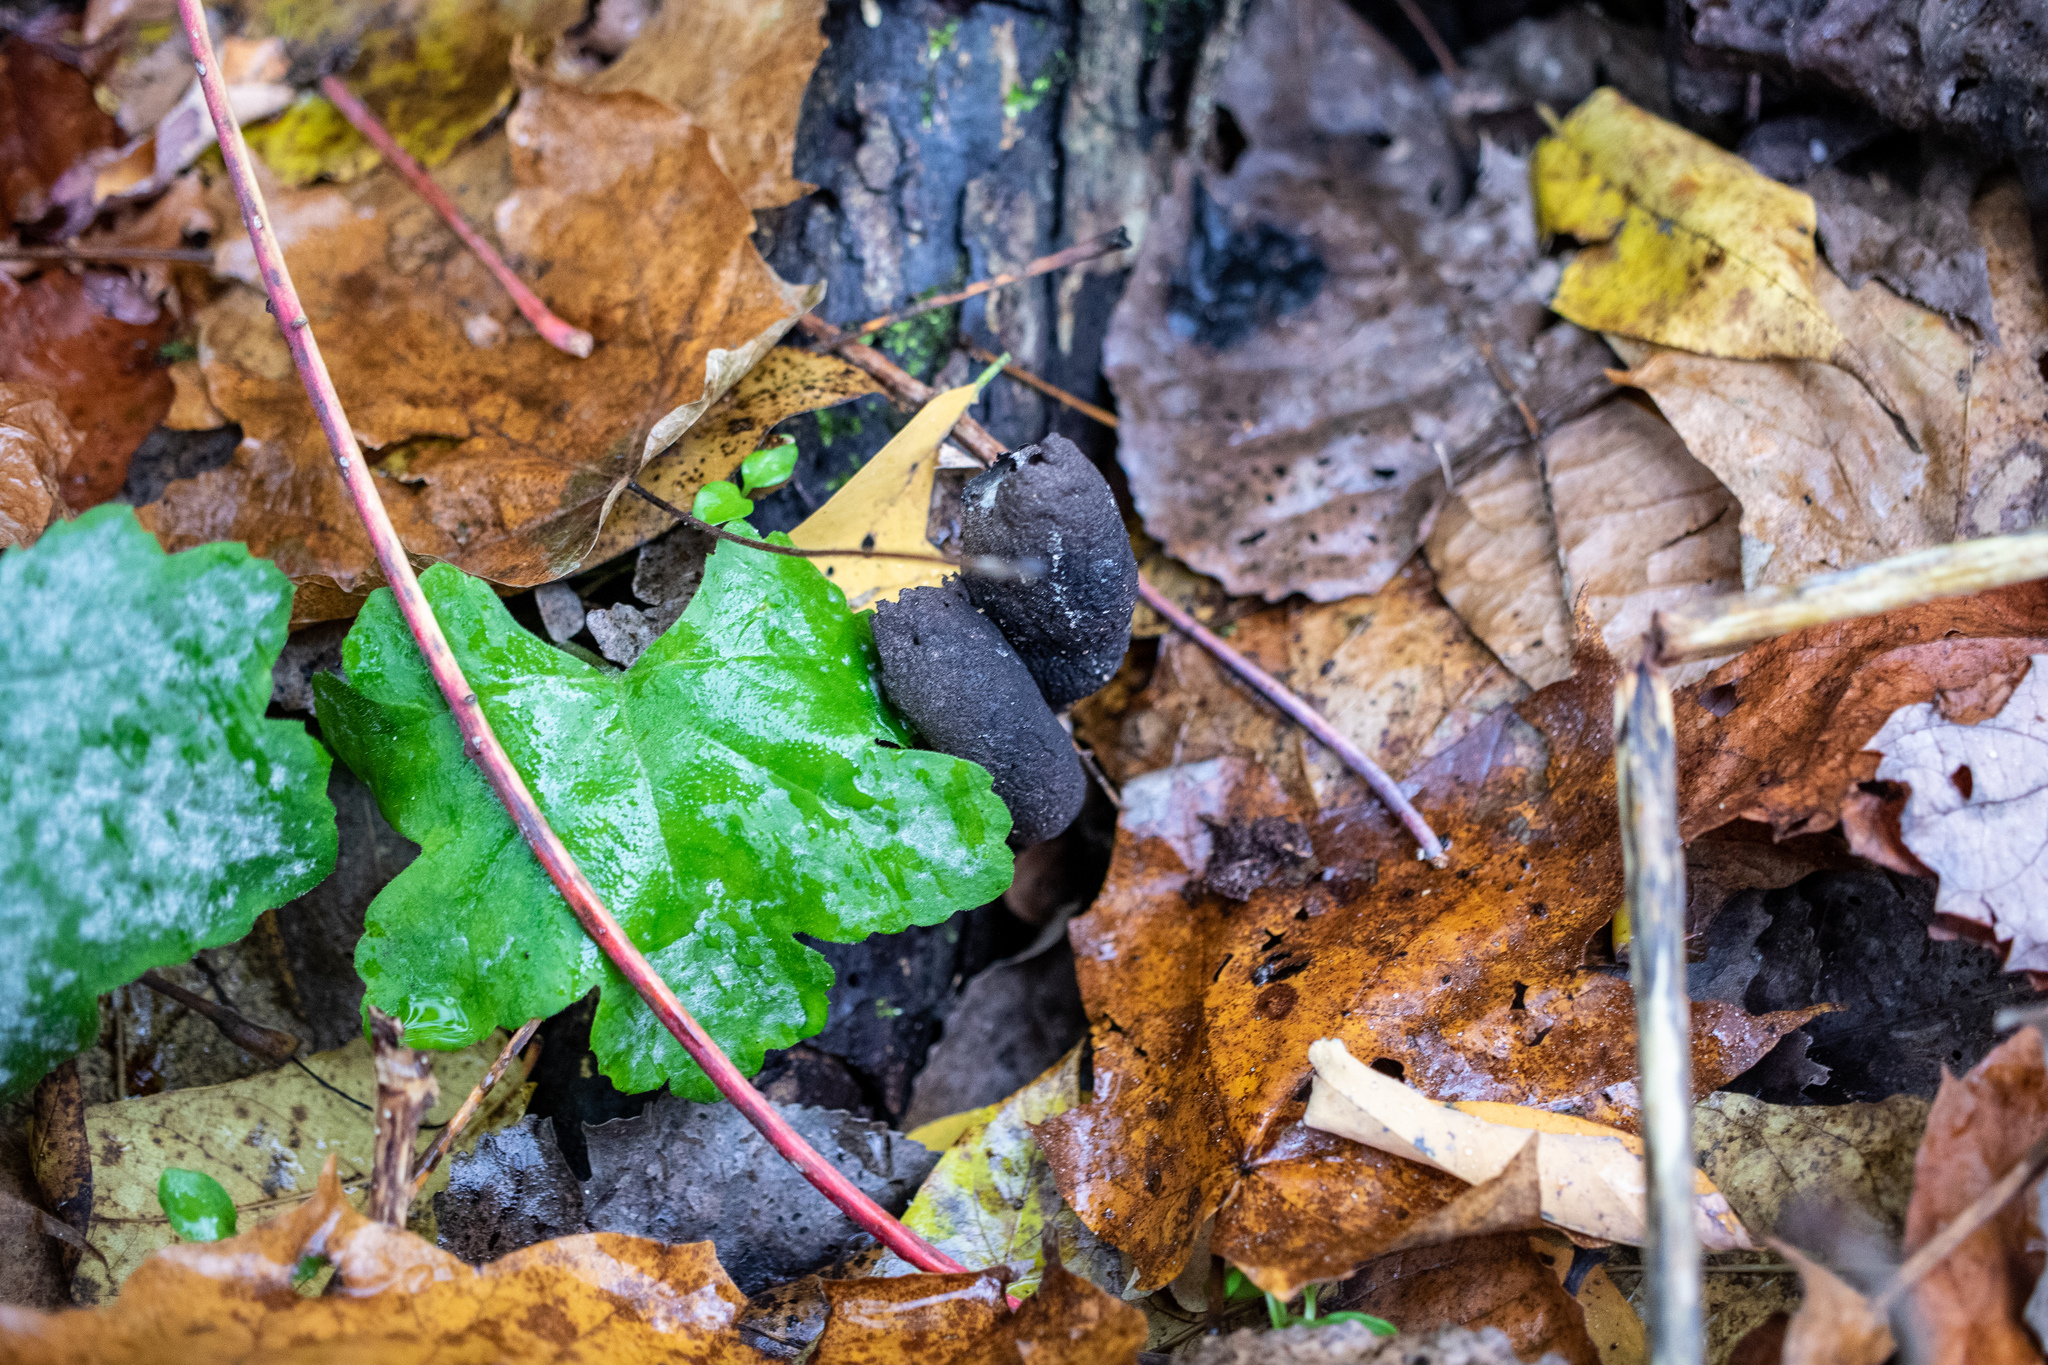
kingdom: Fungi
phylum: Ascomycota
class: Sordariomycetes
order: Xylariales
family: Xylariaceae
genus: Xylaria
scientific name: Xylaria polymorpha
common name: Dead man's fingers
